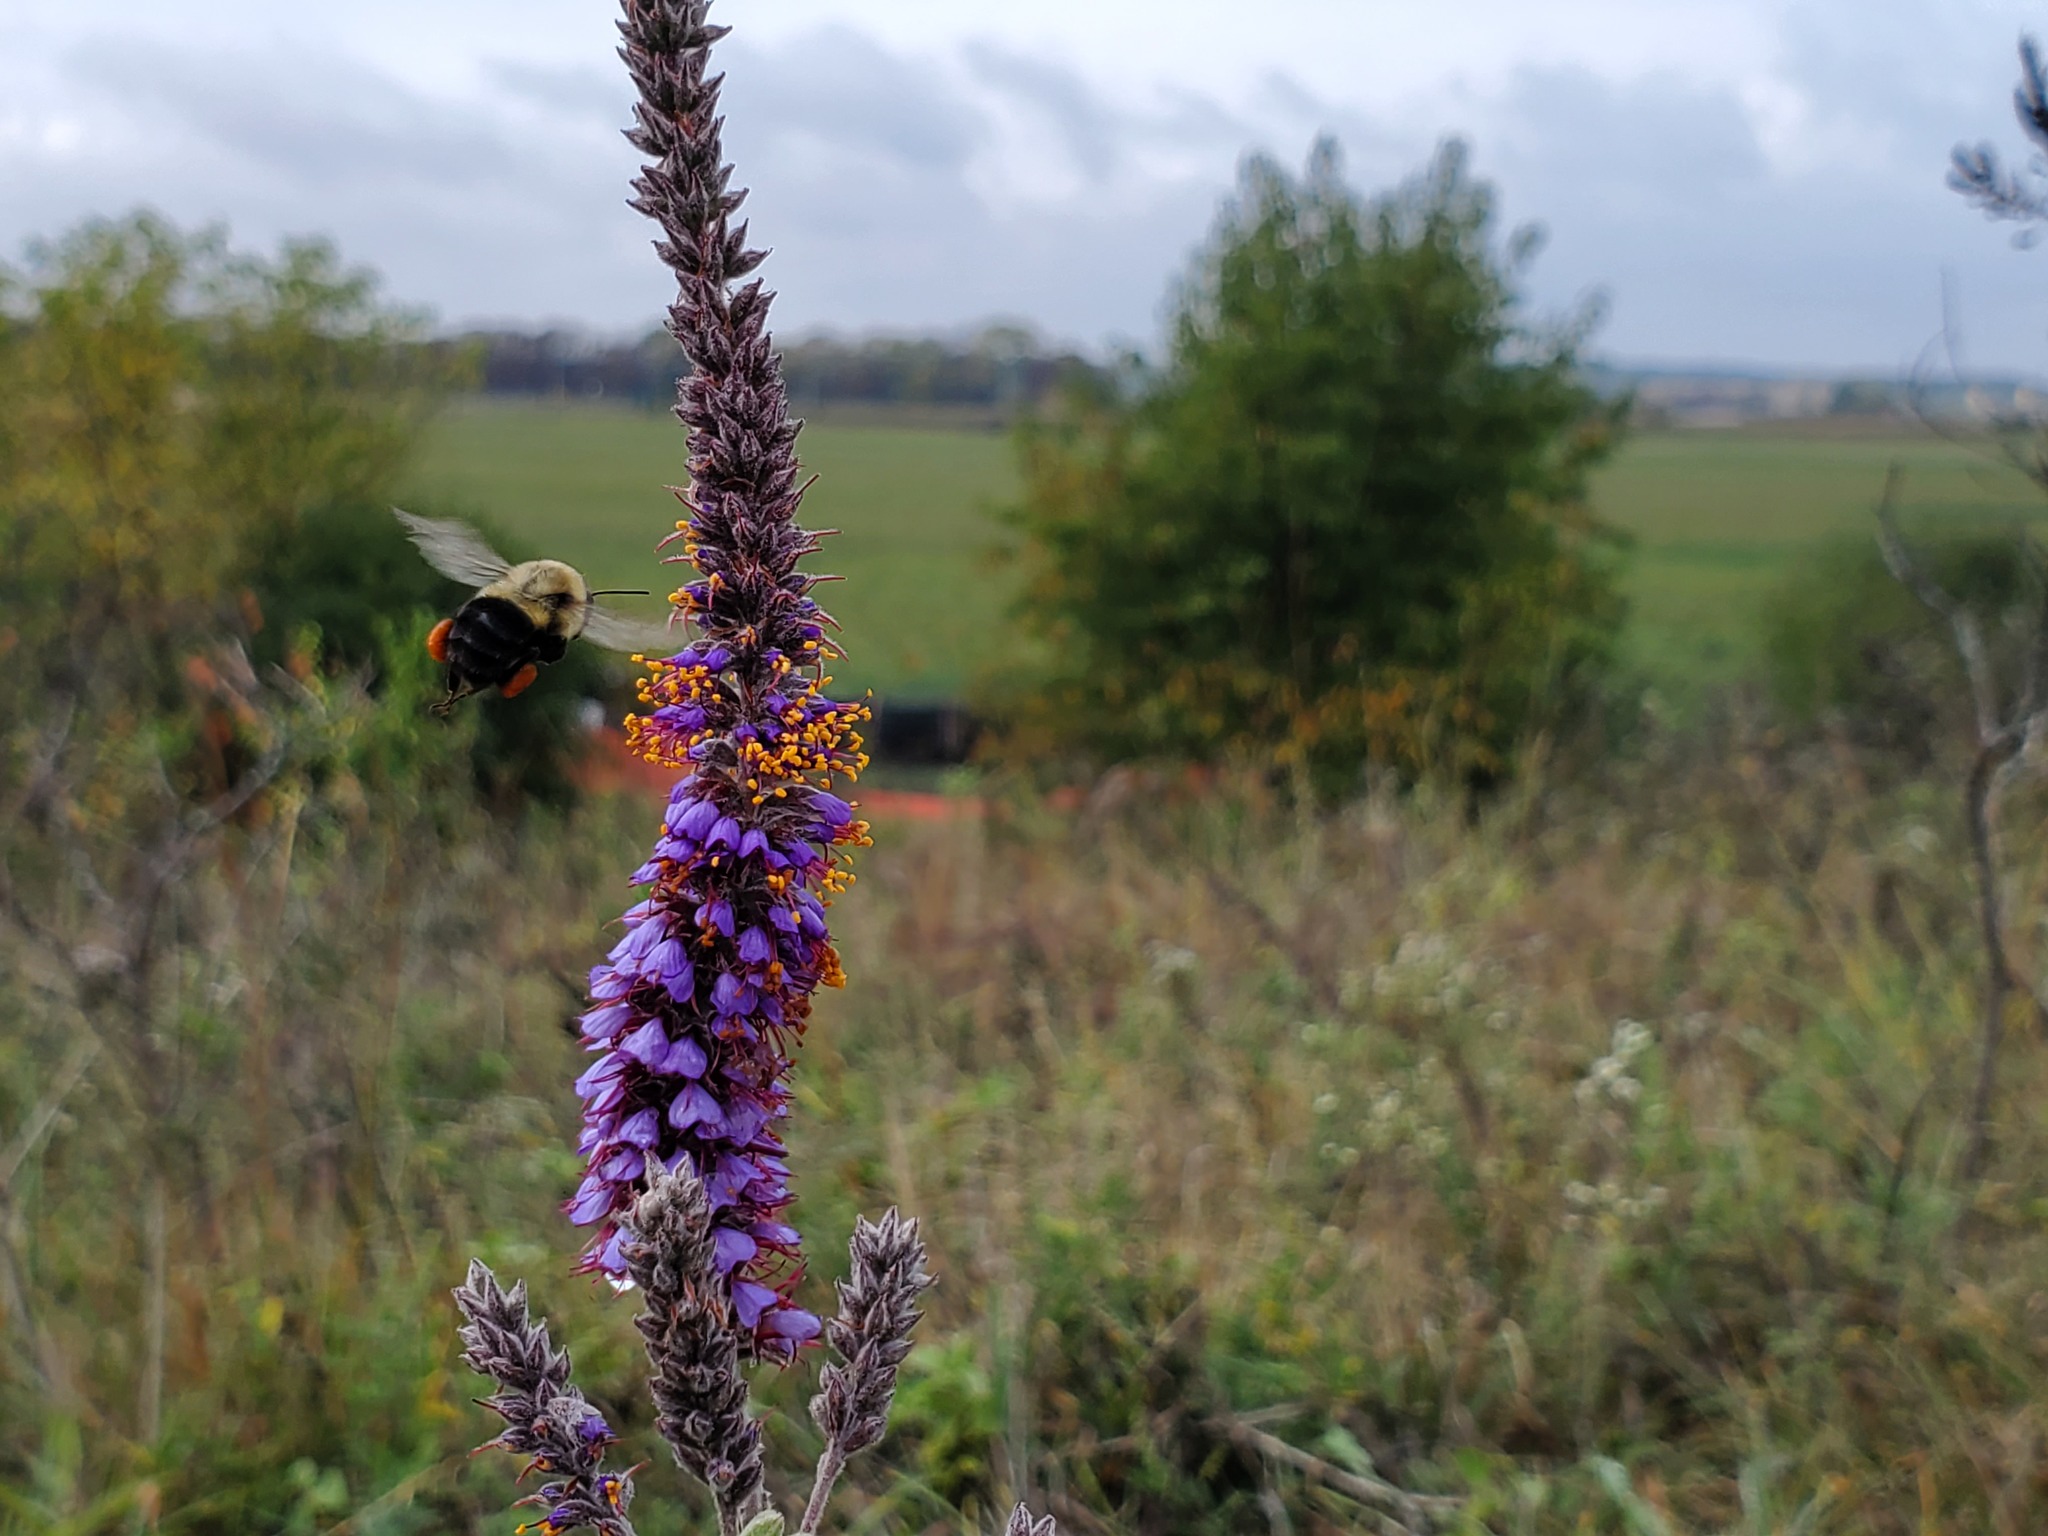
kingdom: Plantae
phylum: Tracheophyta
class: Magnoliopsida
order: Fabales
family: Fabaceae
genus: Amorpha
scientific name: Amorpha canescens
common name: Leadplant
